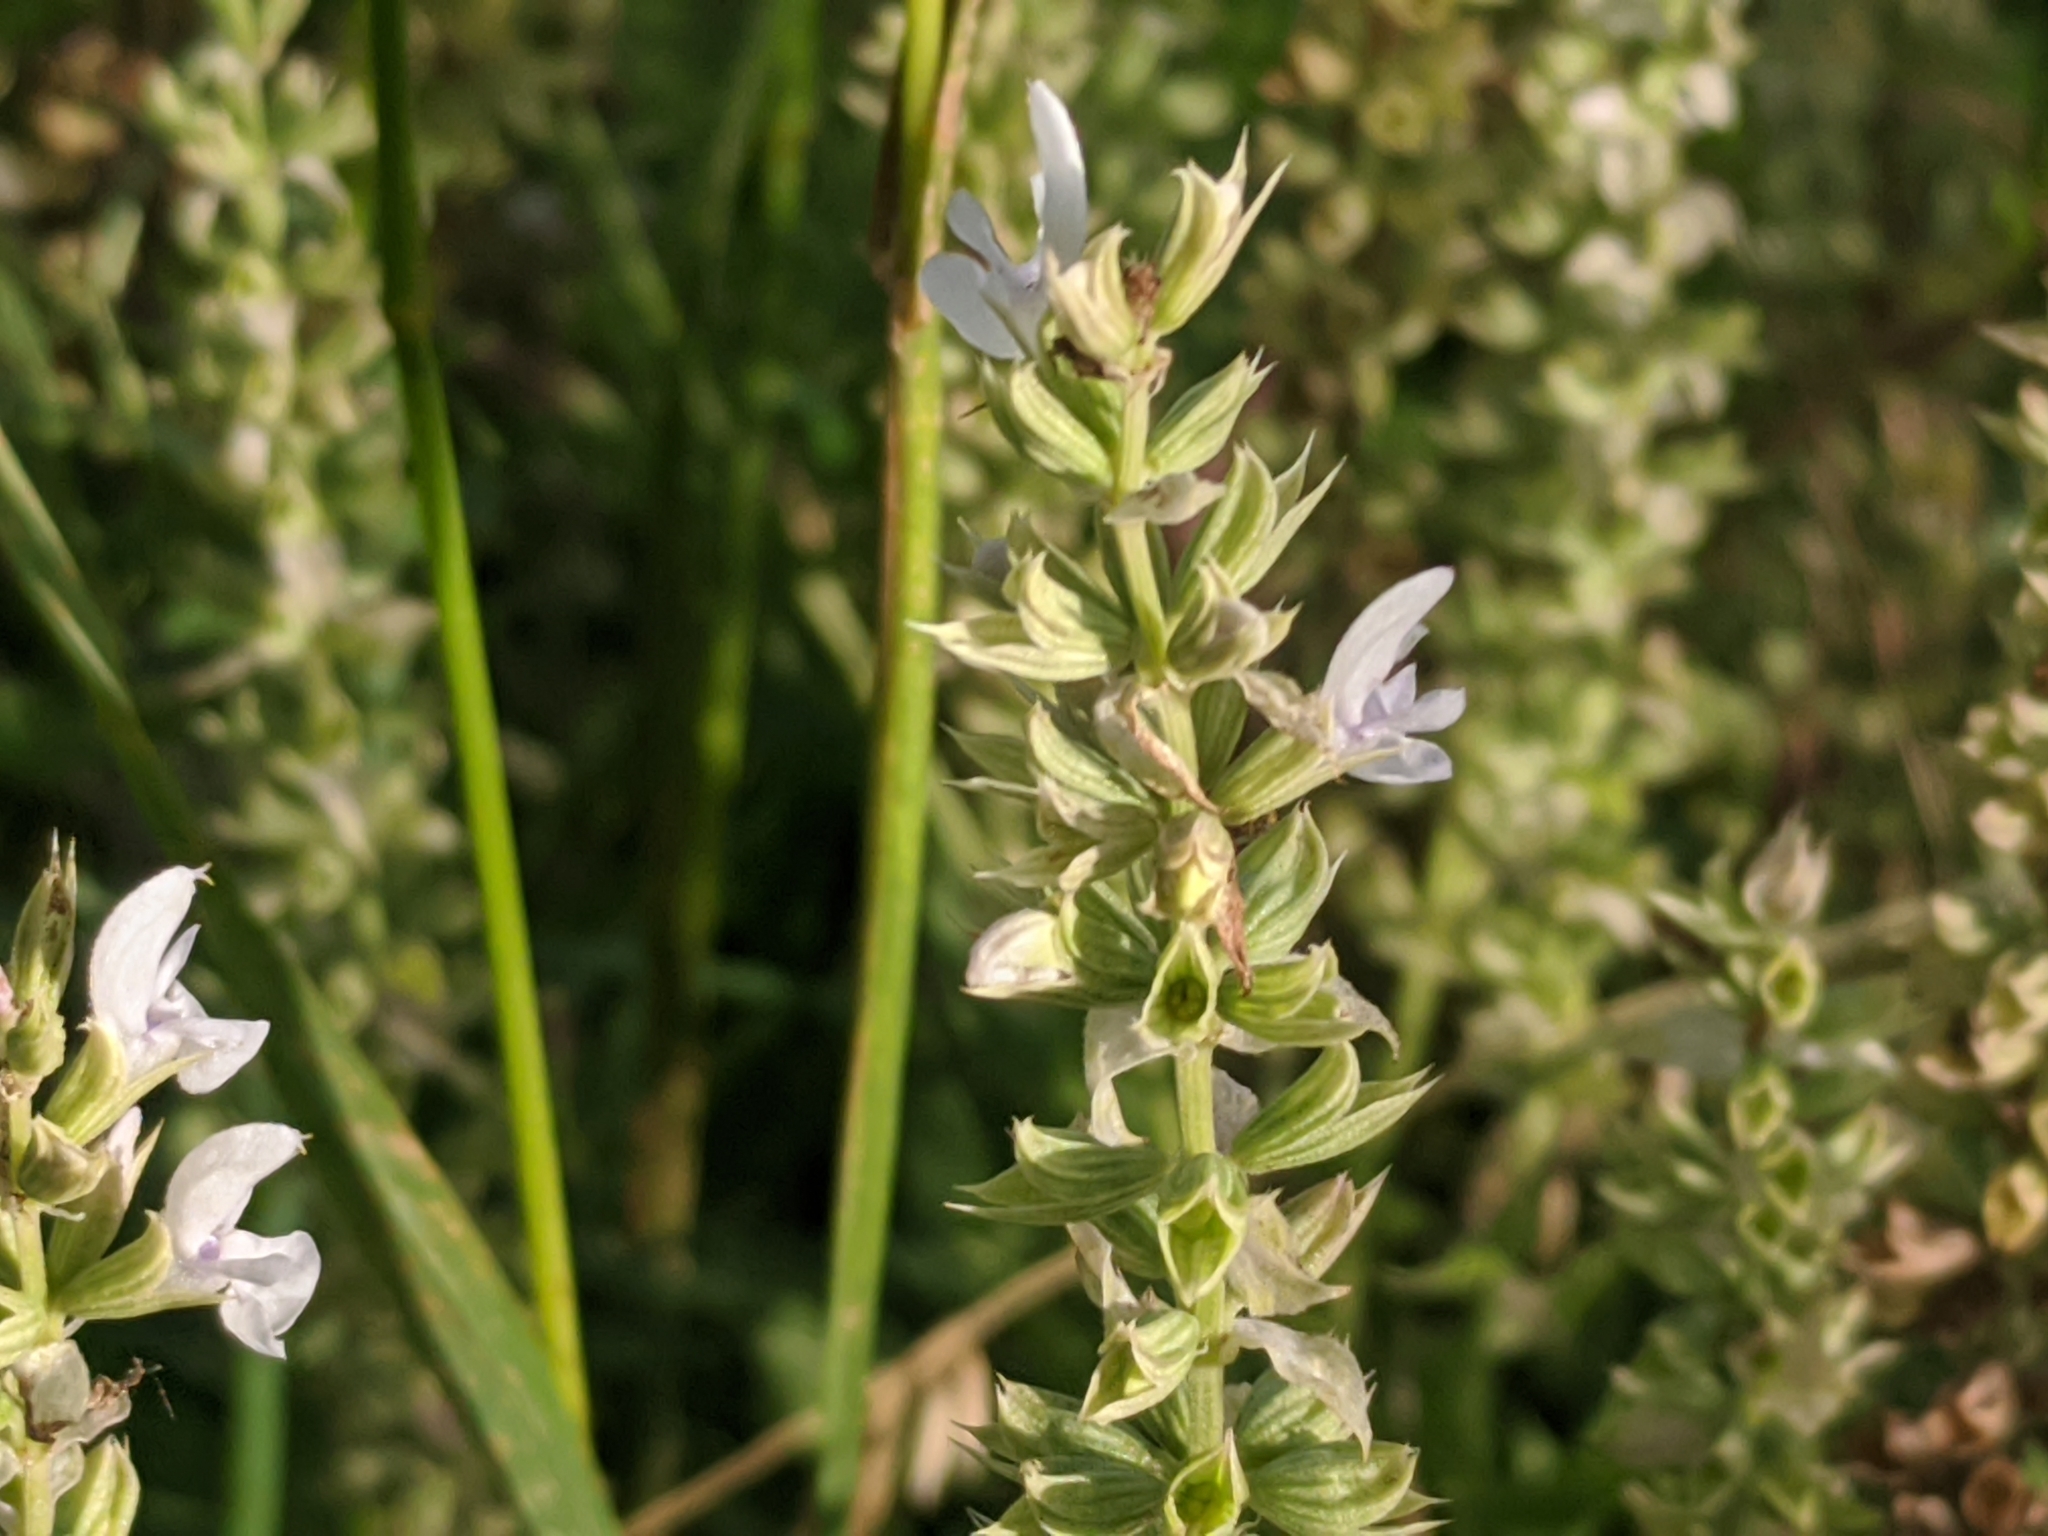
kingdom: Plantae
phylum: Tracheophyta
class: Magnoliopsida
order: Lamiales
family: Lamiaceae
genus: Salvia
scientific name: Salvia nemorosa
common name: Balkan clary
